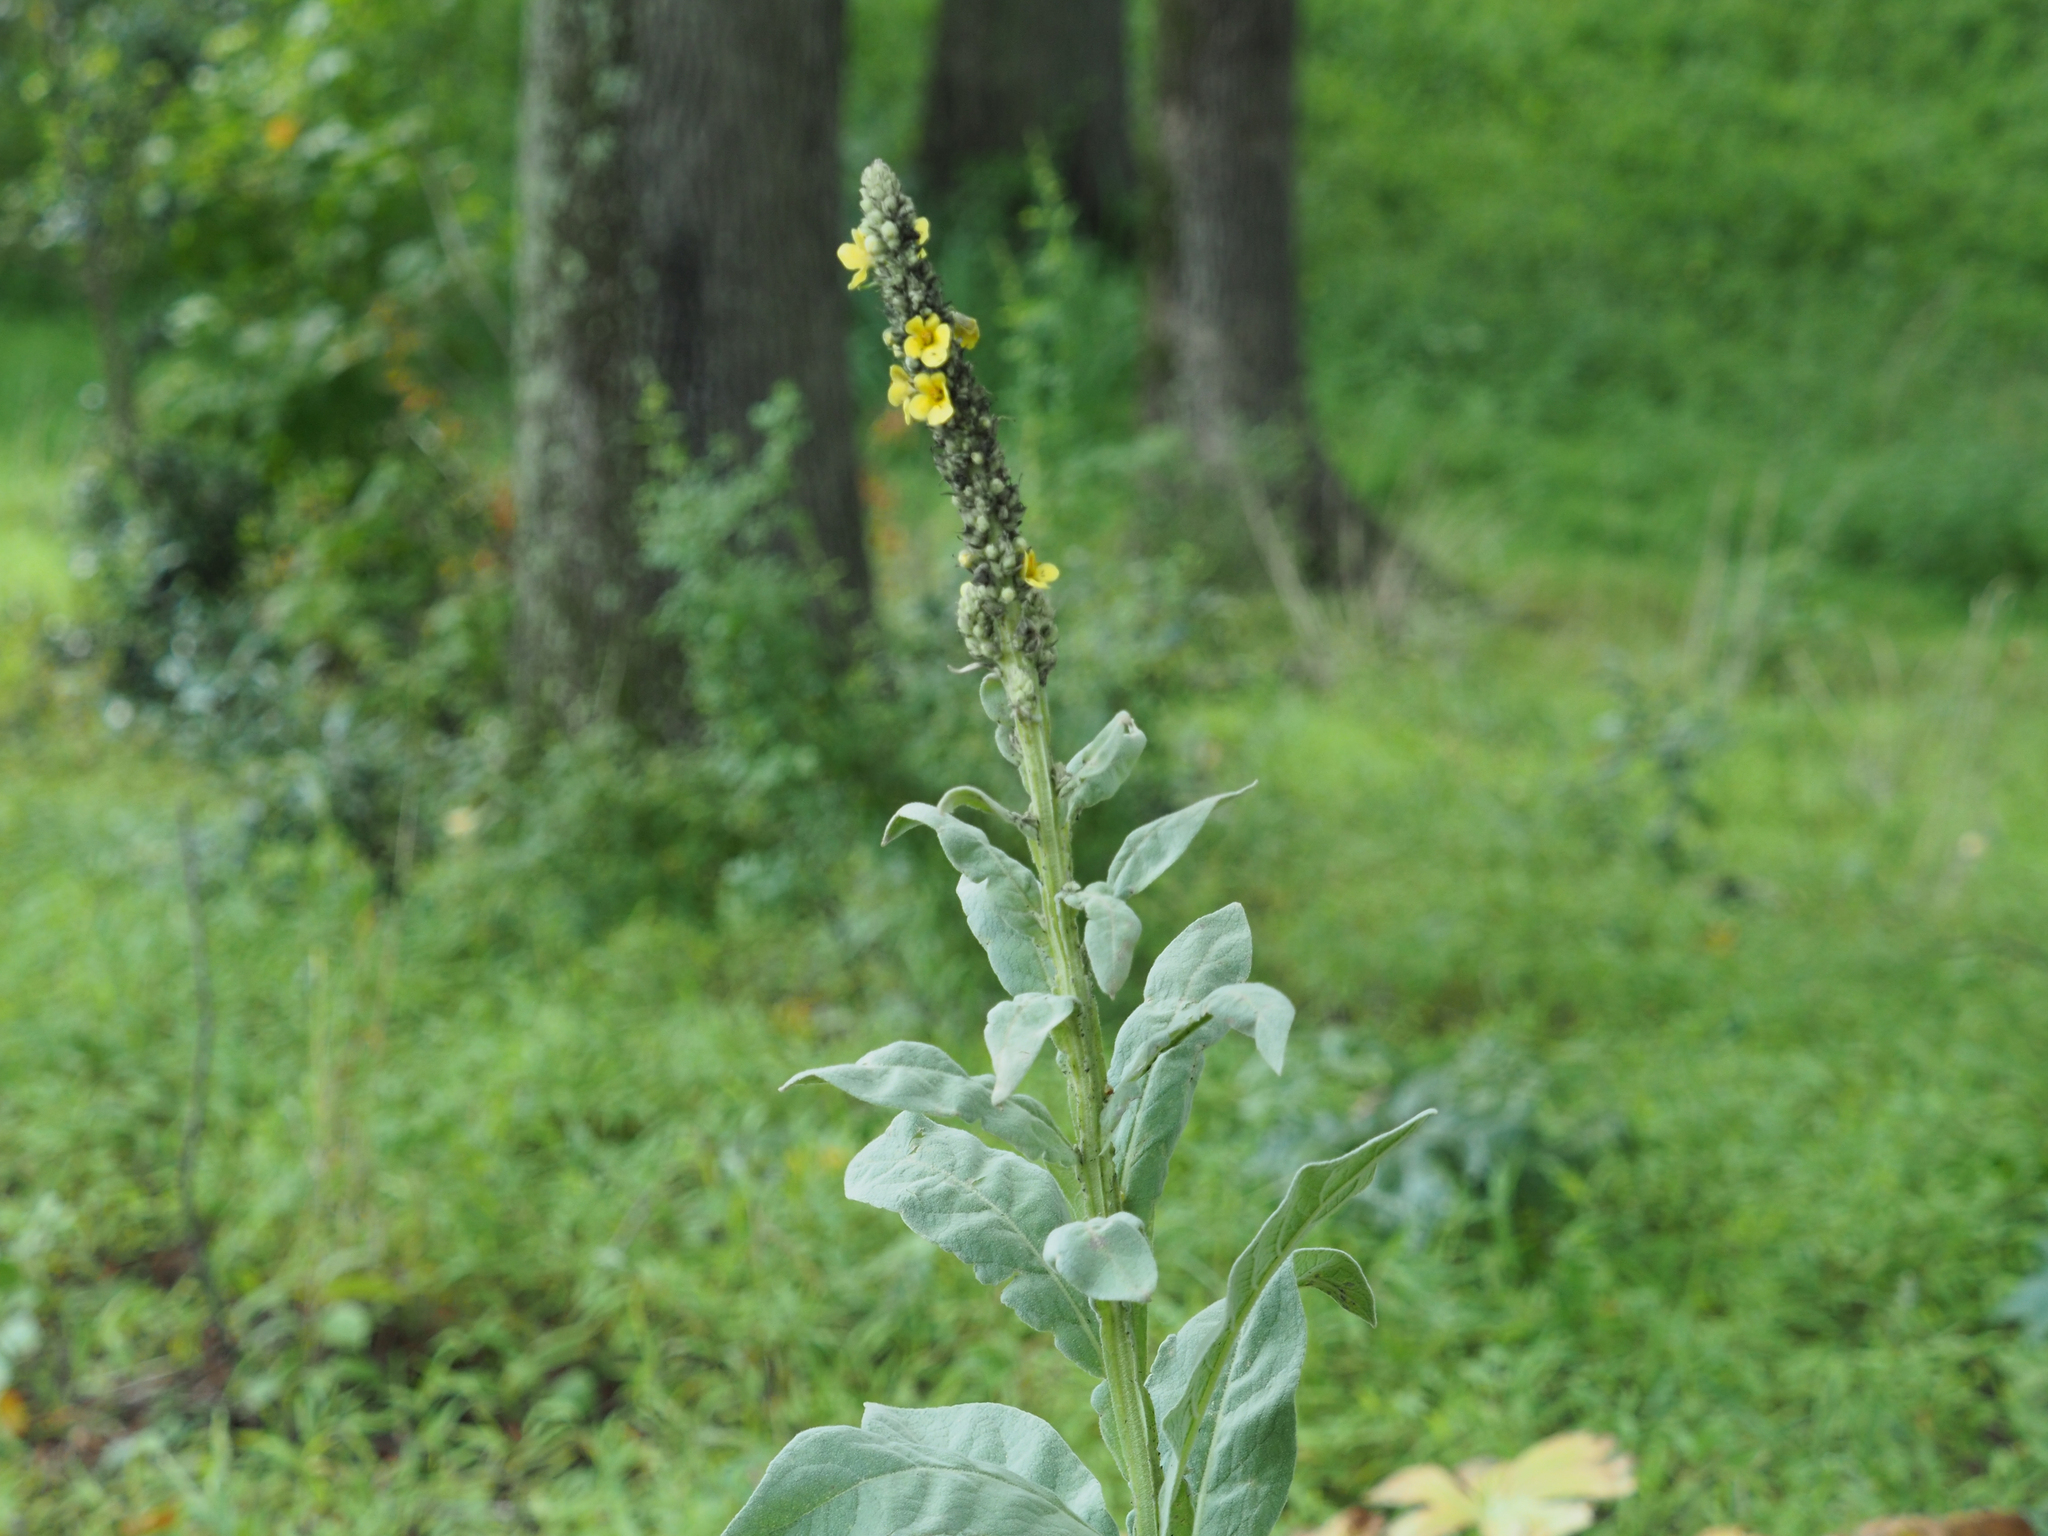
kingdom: Plantae
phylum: Tracheophyta
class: Magnoliopsida
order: Lamiales
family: Scrophulariaceae
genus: Verbascum
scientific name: Verbascum thapsus
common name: Common mullein
